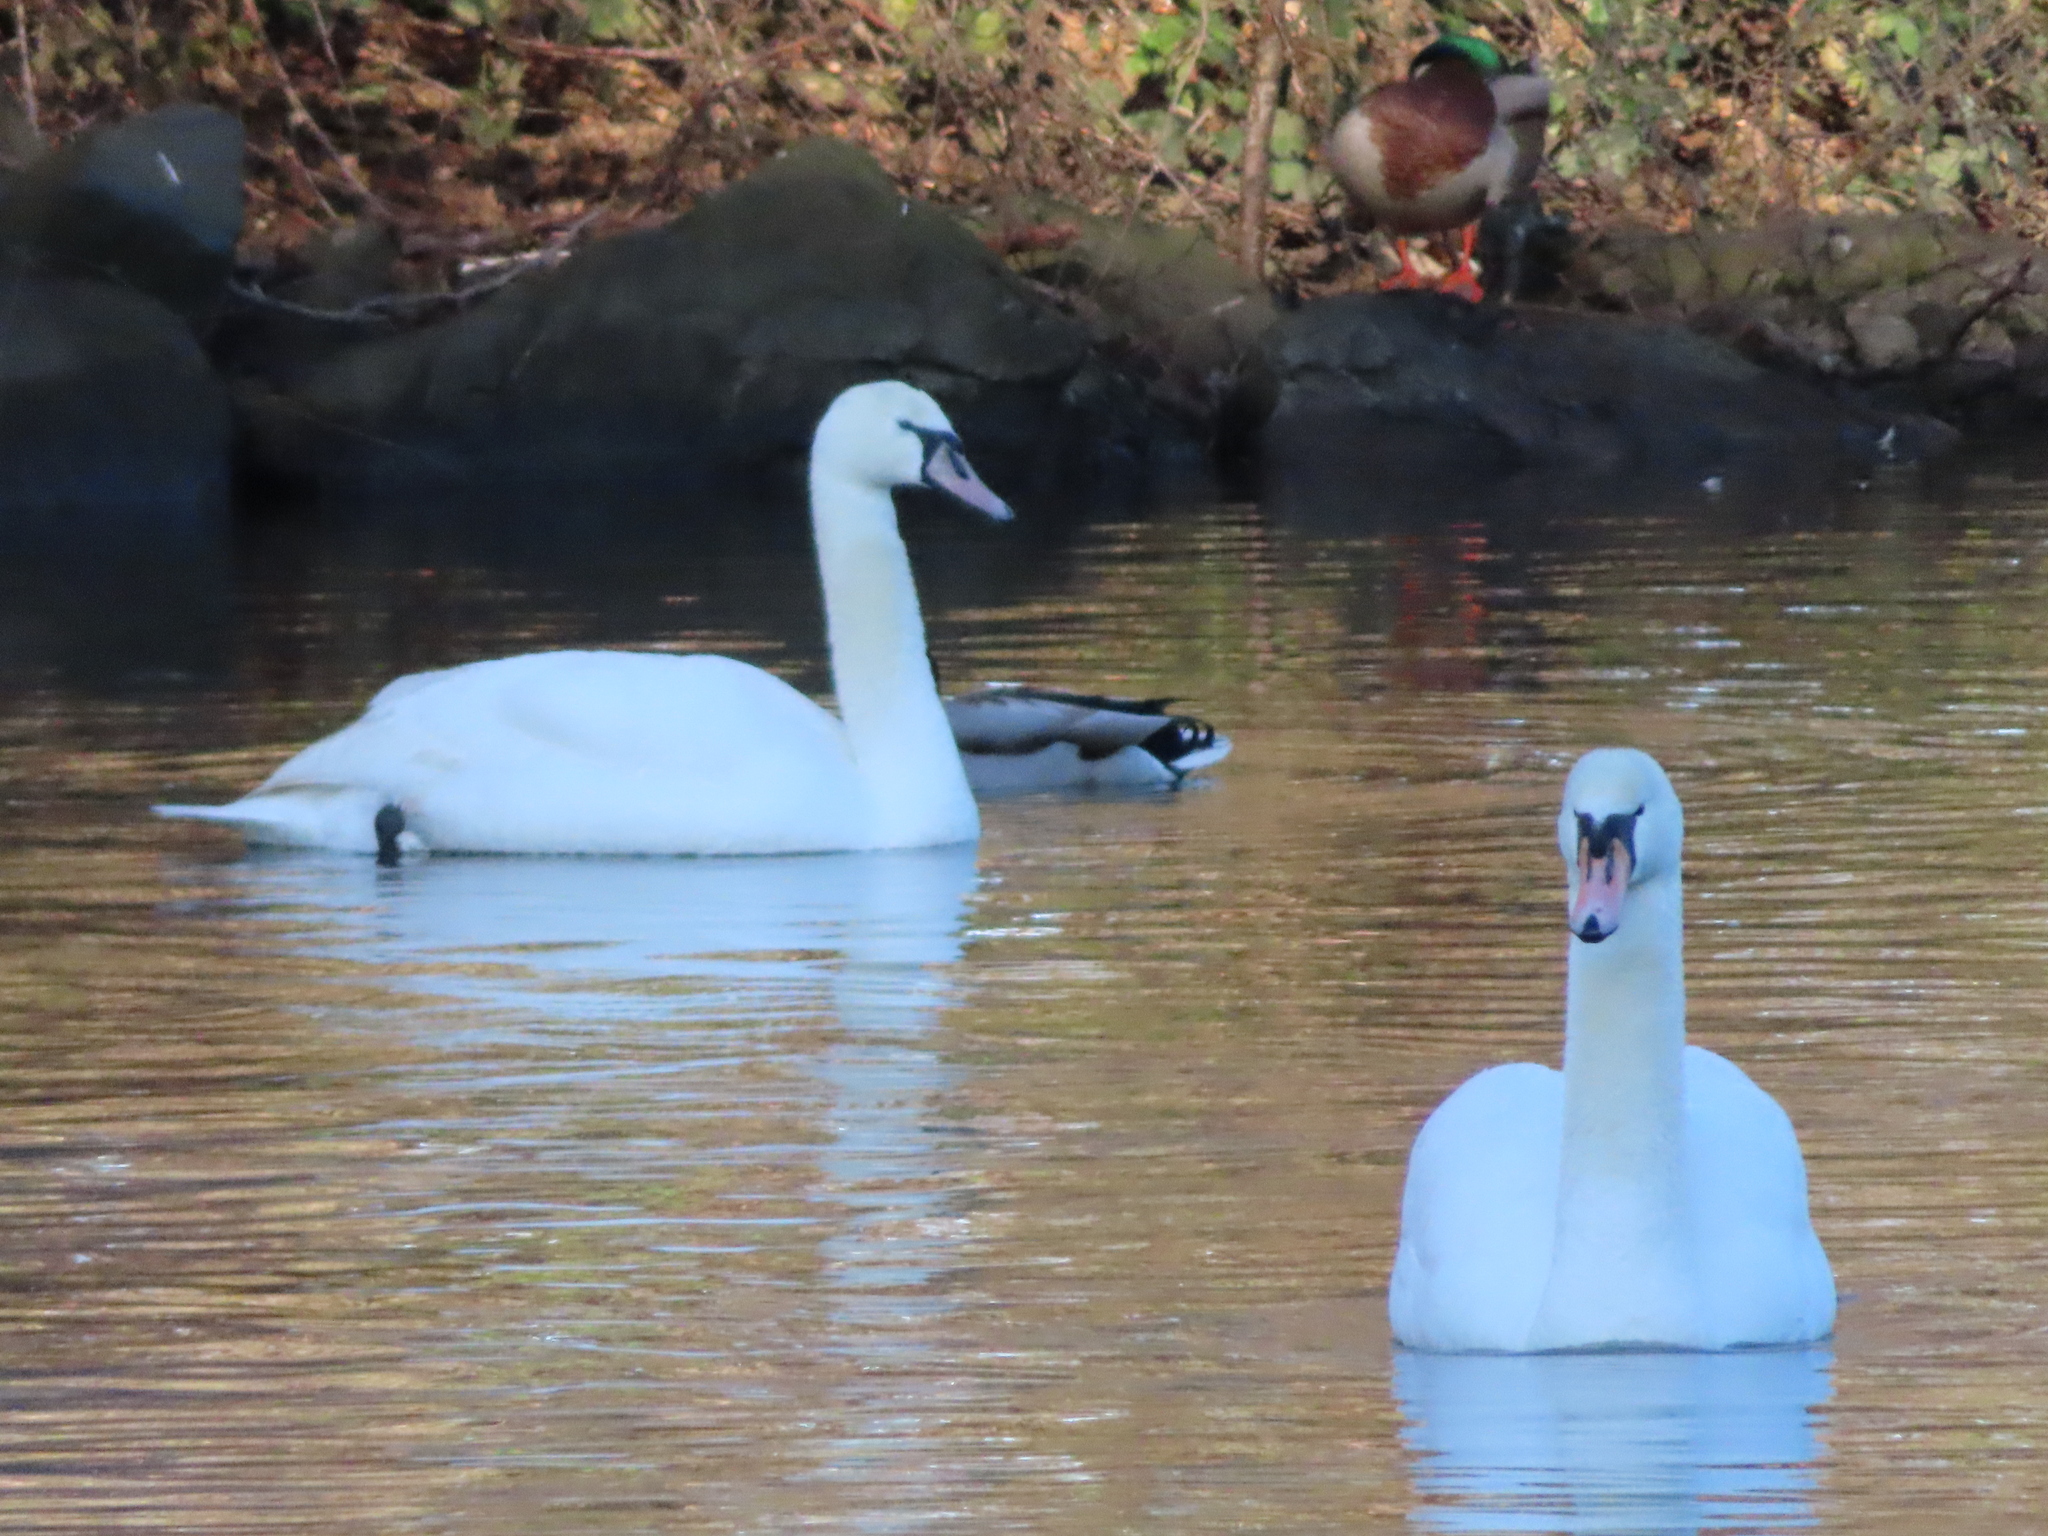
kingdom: Animalia
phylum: Chordata
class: Aves
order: Anseriformes
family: Anatidae
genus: Cygnus
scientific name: Cygnus olor
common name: Mute swan
